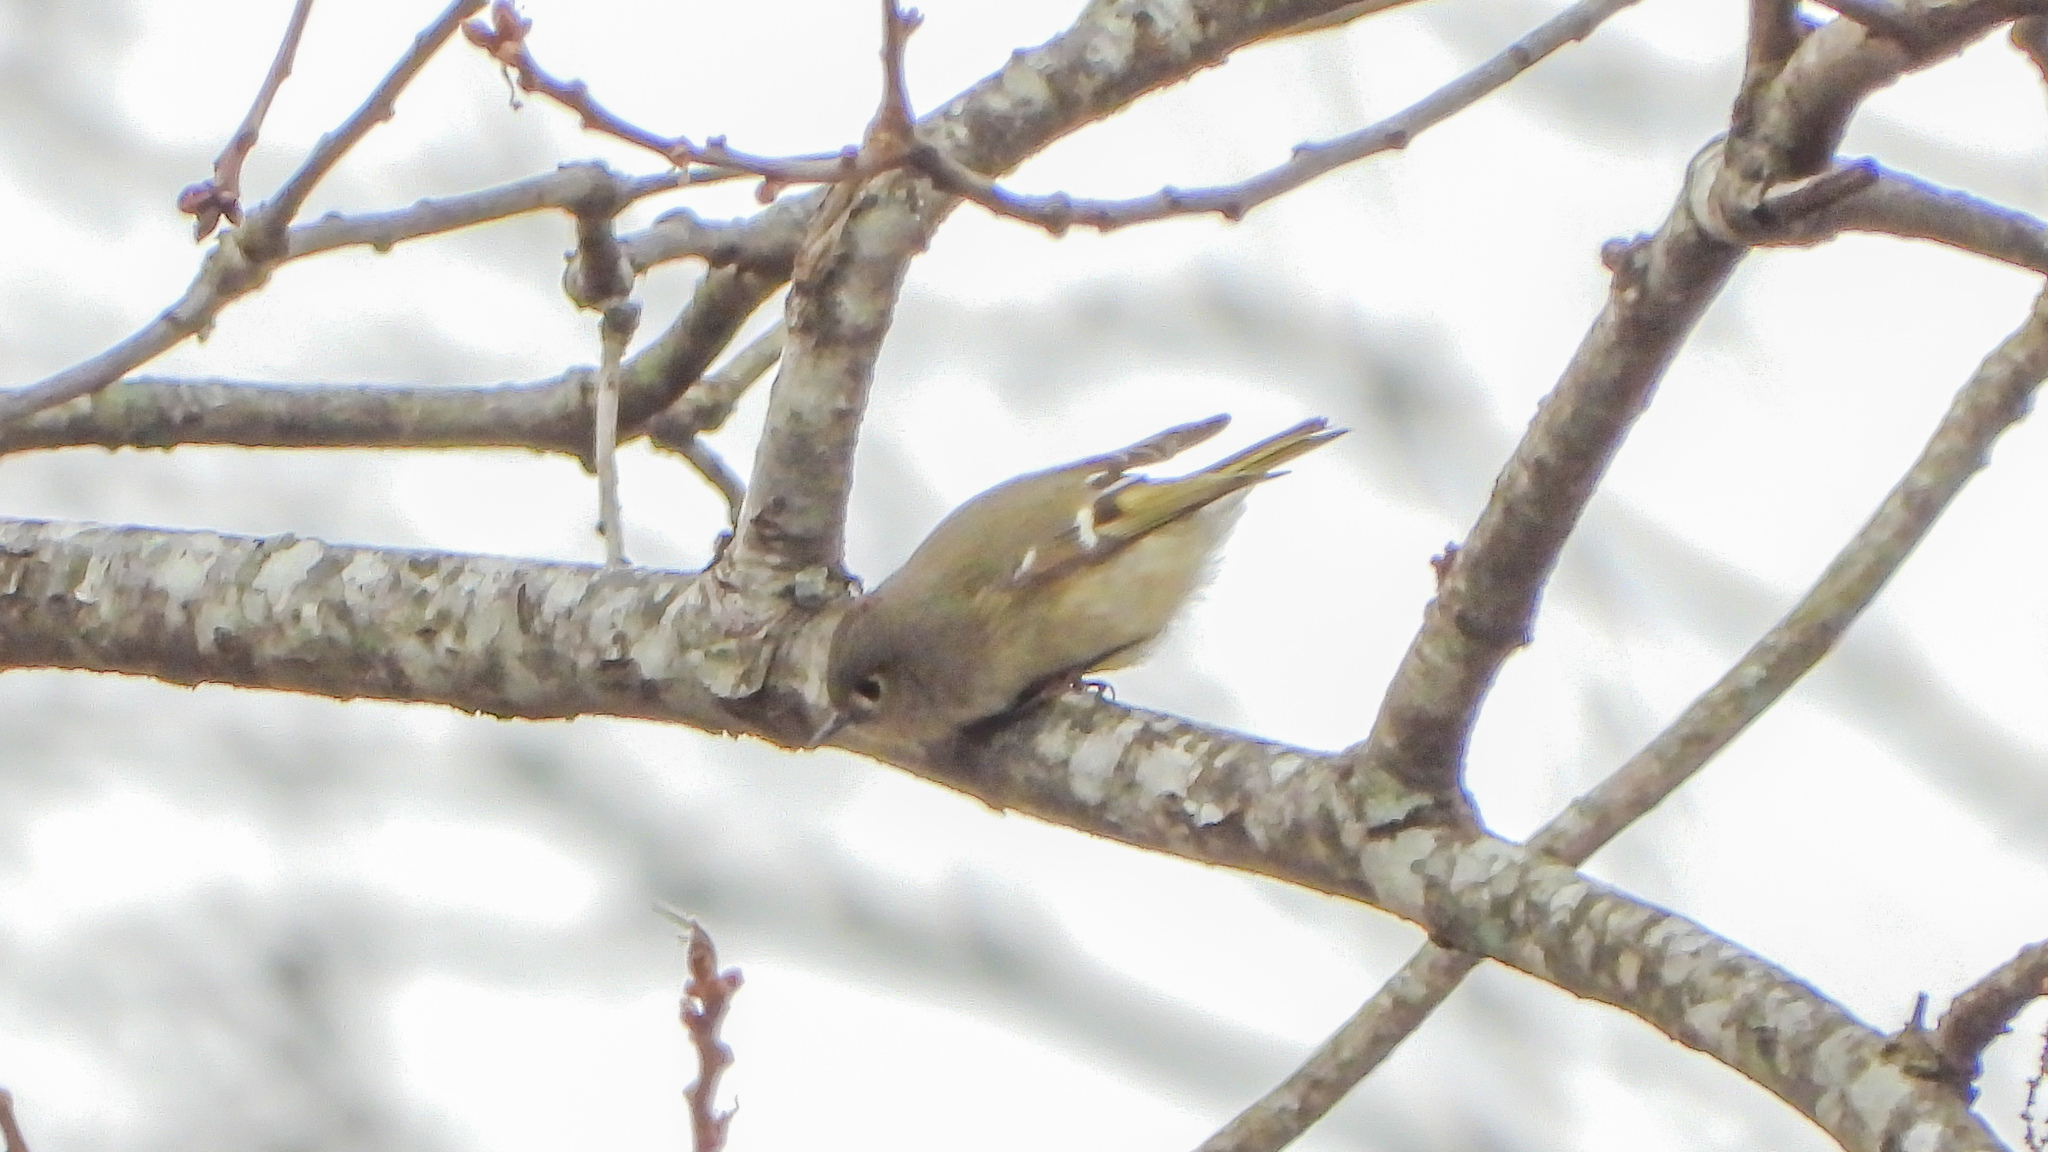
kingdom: Animalia
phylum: Chordata
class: Aves
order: Passeriformes
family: Regulidae
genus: Regulus
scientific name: Regulus calendula
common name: Ruby-crowned kinglet
